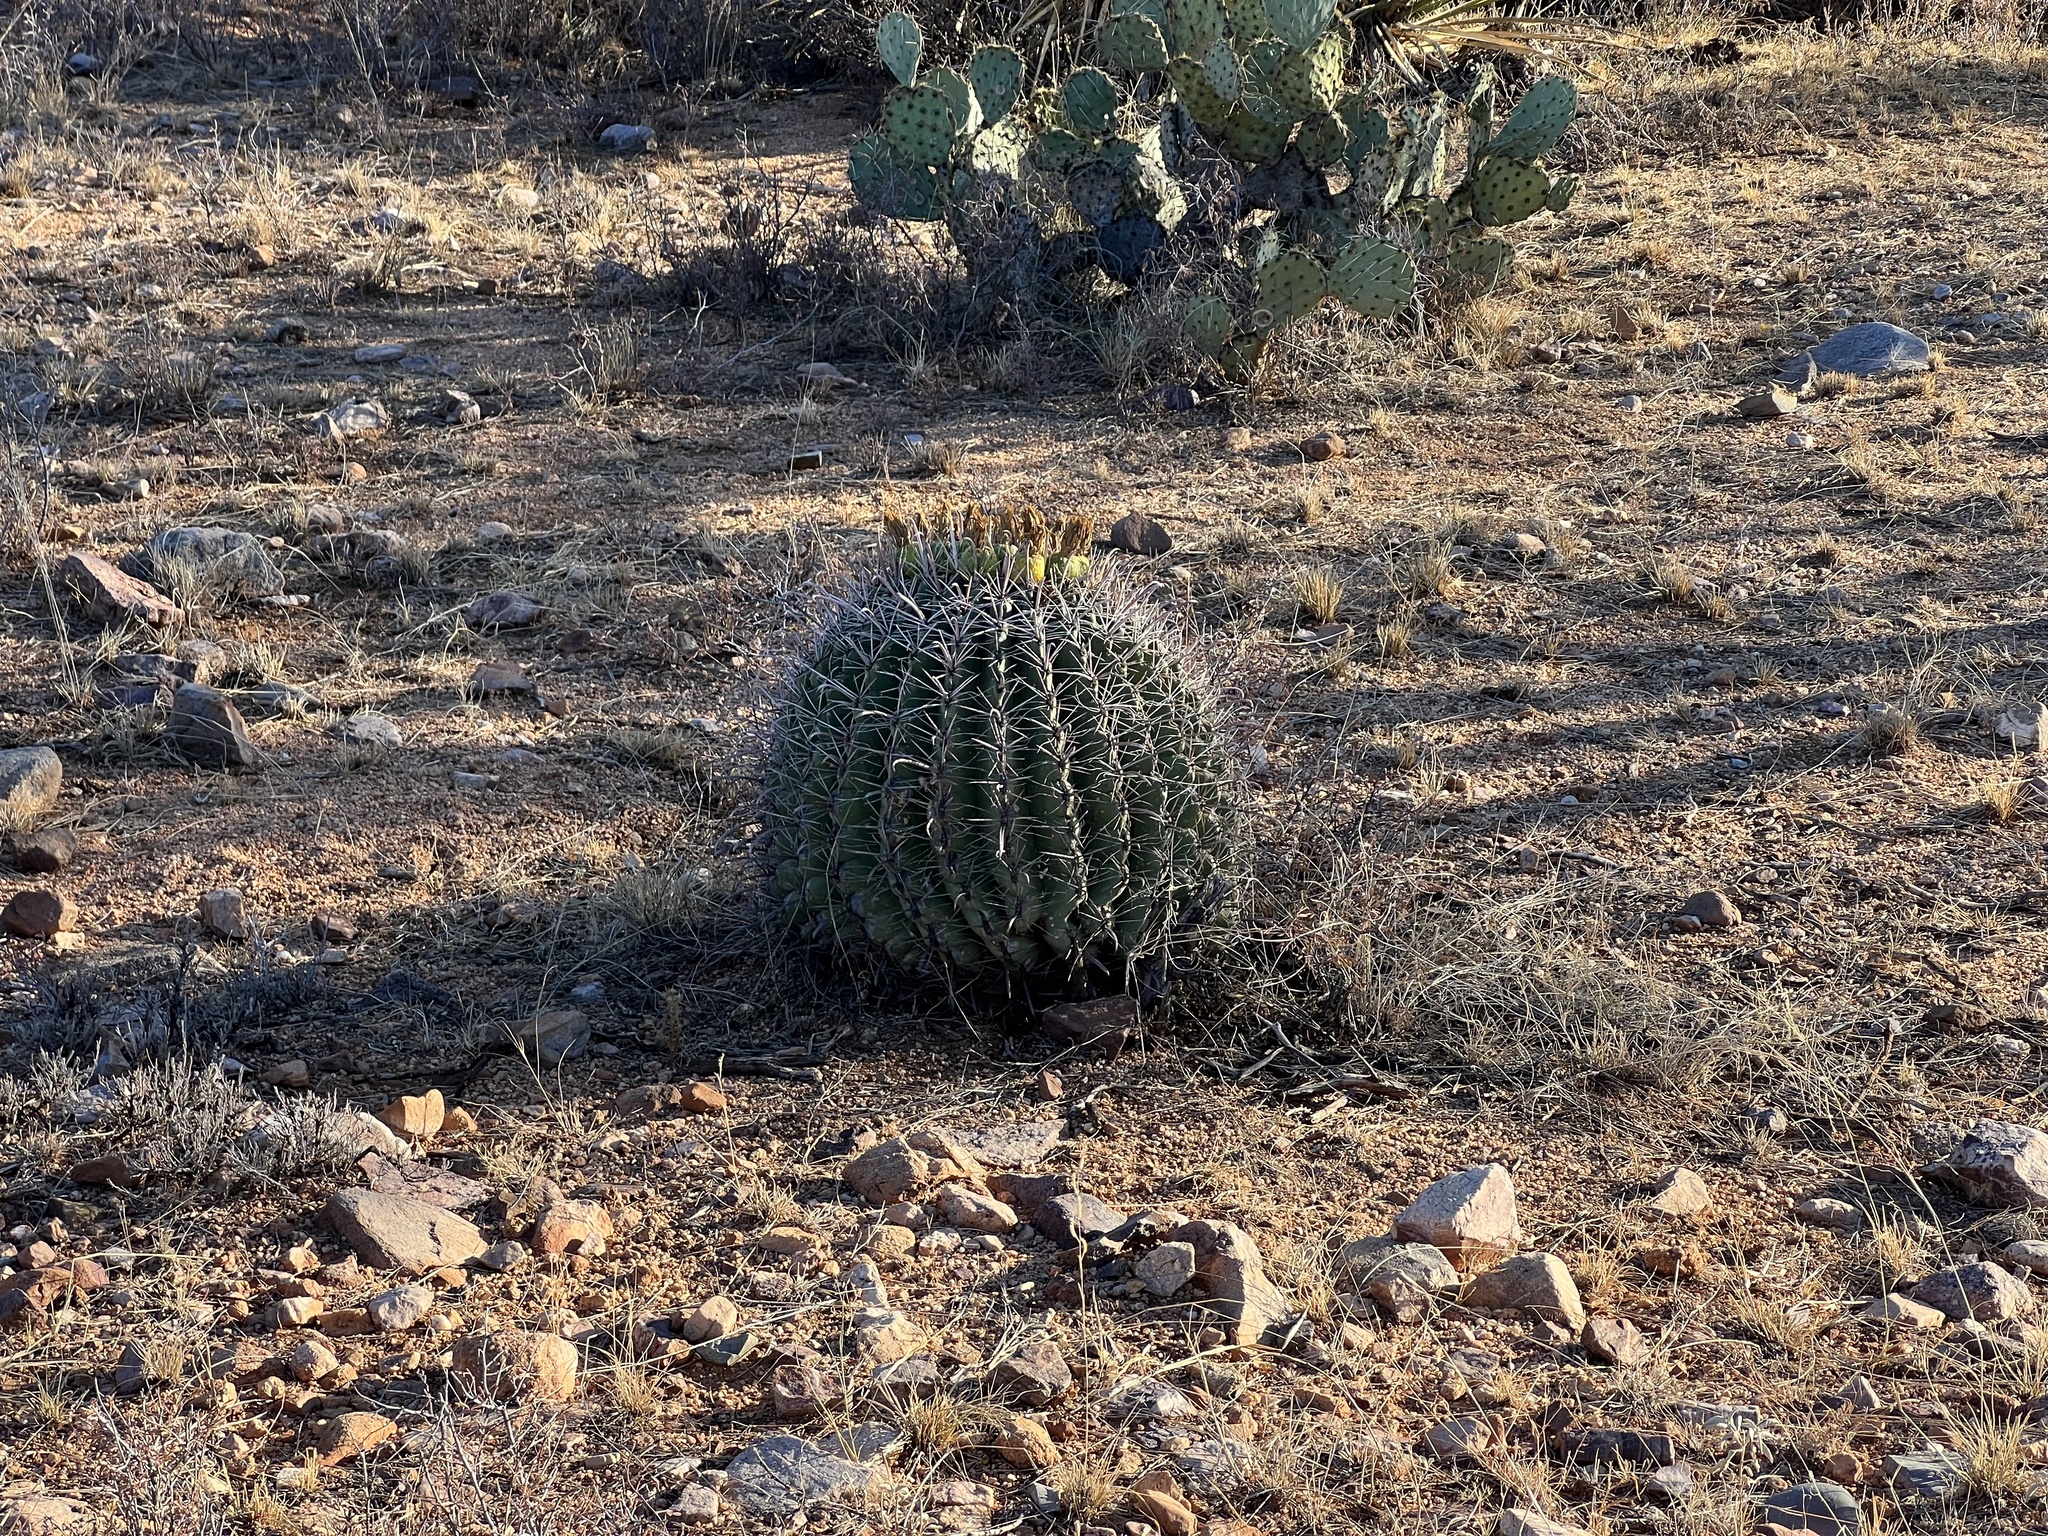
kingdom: Plantae
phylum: Tracheophyta
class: Magnoliopsida
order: Caryophyllales
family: Cactaceae
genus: Ferocactus
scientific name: Ferocactus wislizeni
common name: Candy barrel cactus
